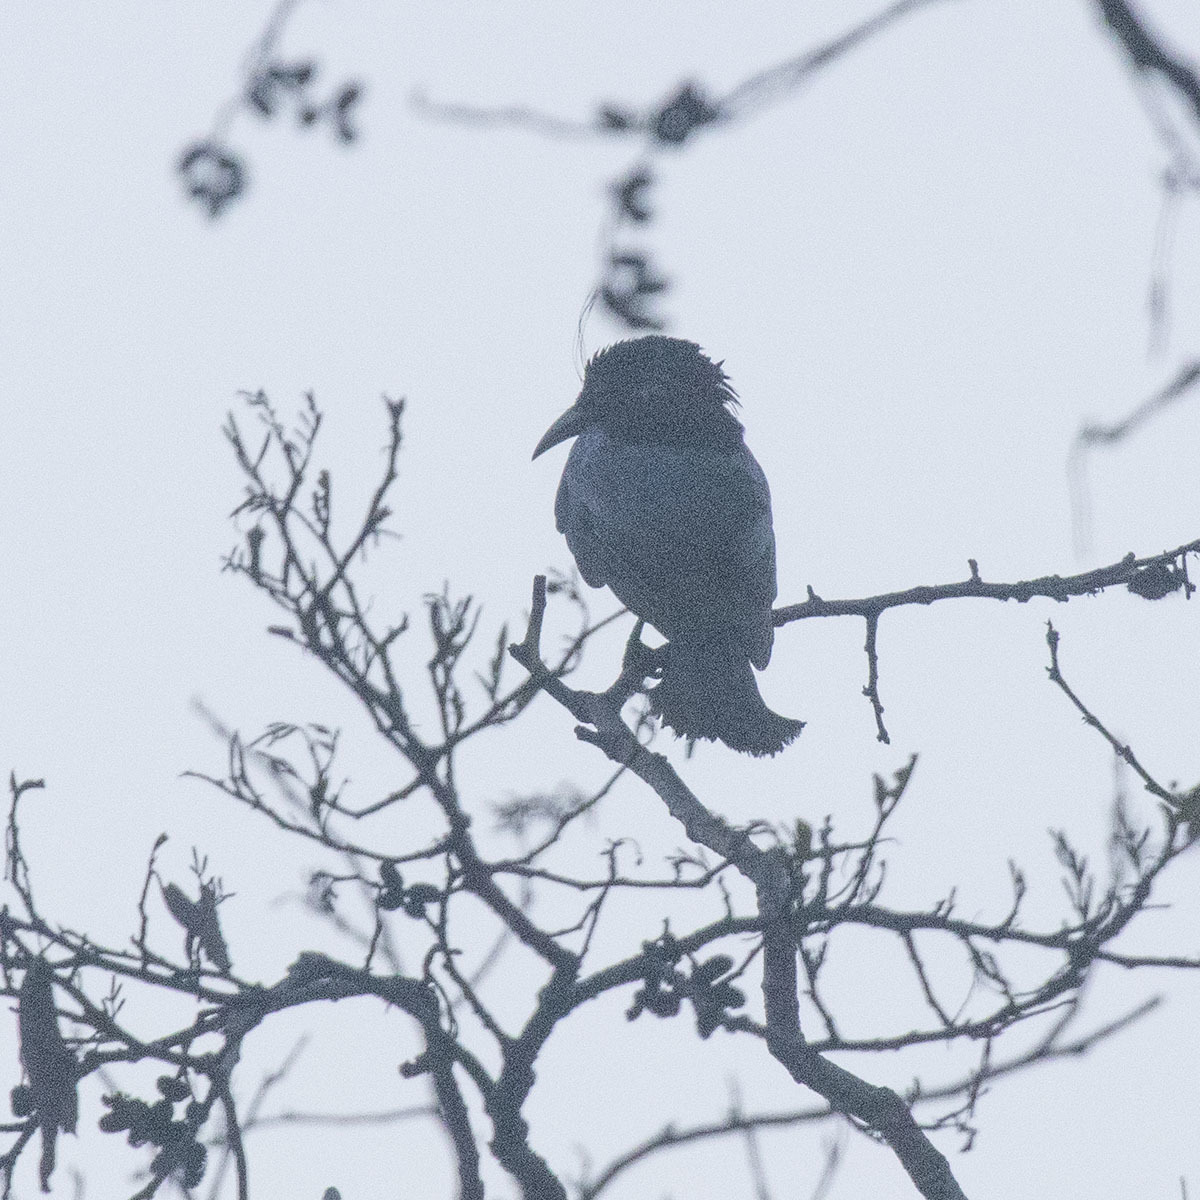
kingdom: Animalia
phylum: Chordata
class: Aves
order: Passeriformes
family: Dicruridae
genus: Dicrurus
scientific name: Dicrurus hottentottus
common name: Hair-crested drongo
